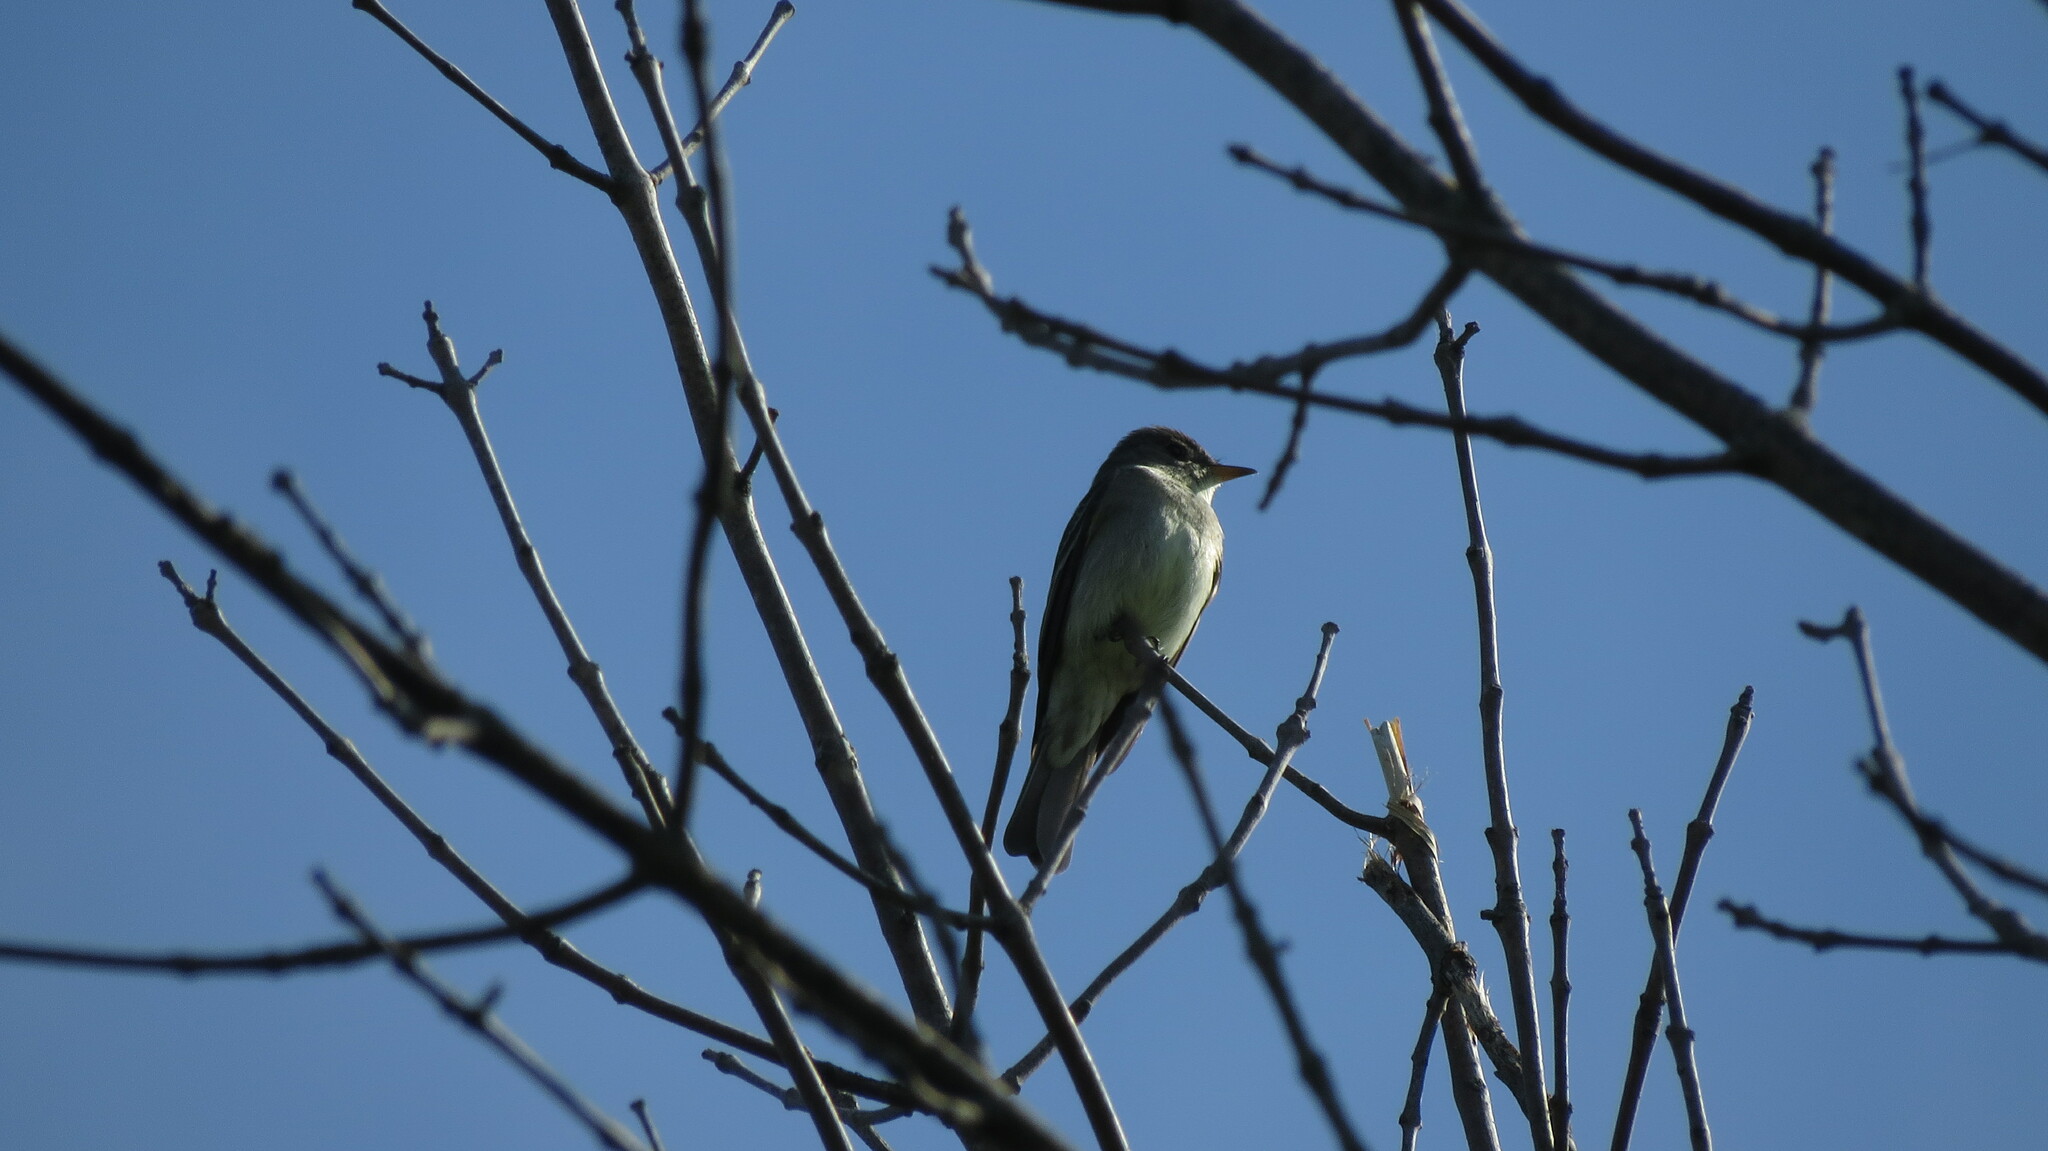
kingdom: Animalia
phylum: Chordata
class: Aves
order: Passeriformes
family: Tyrannidae
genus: Contopus
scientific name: Contopus virens
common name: Eastern wood-pewee
